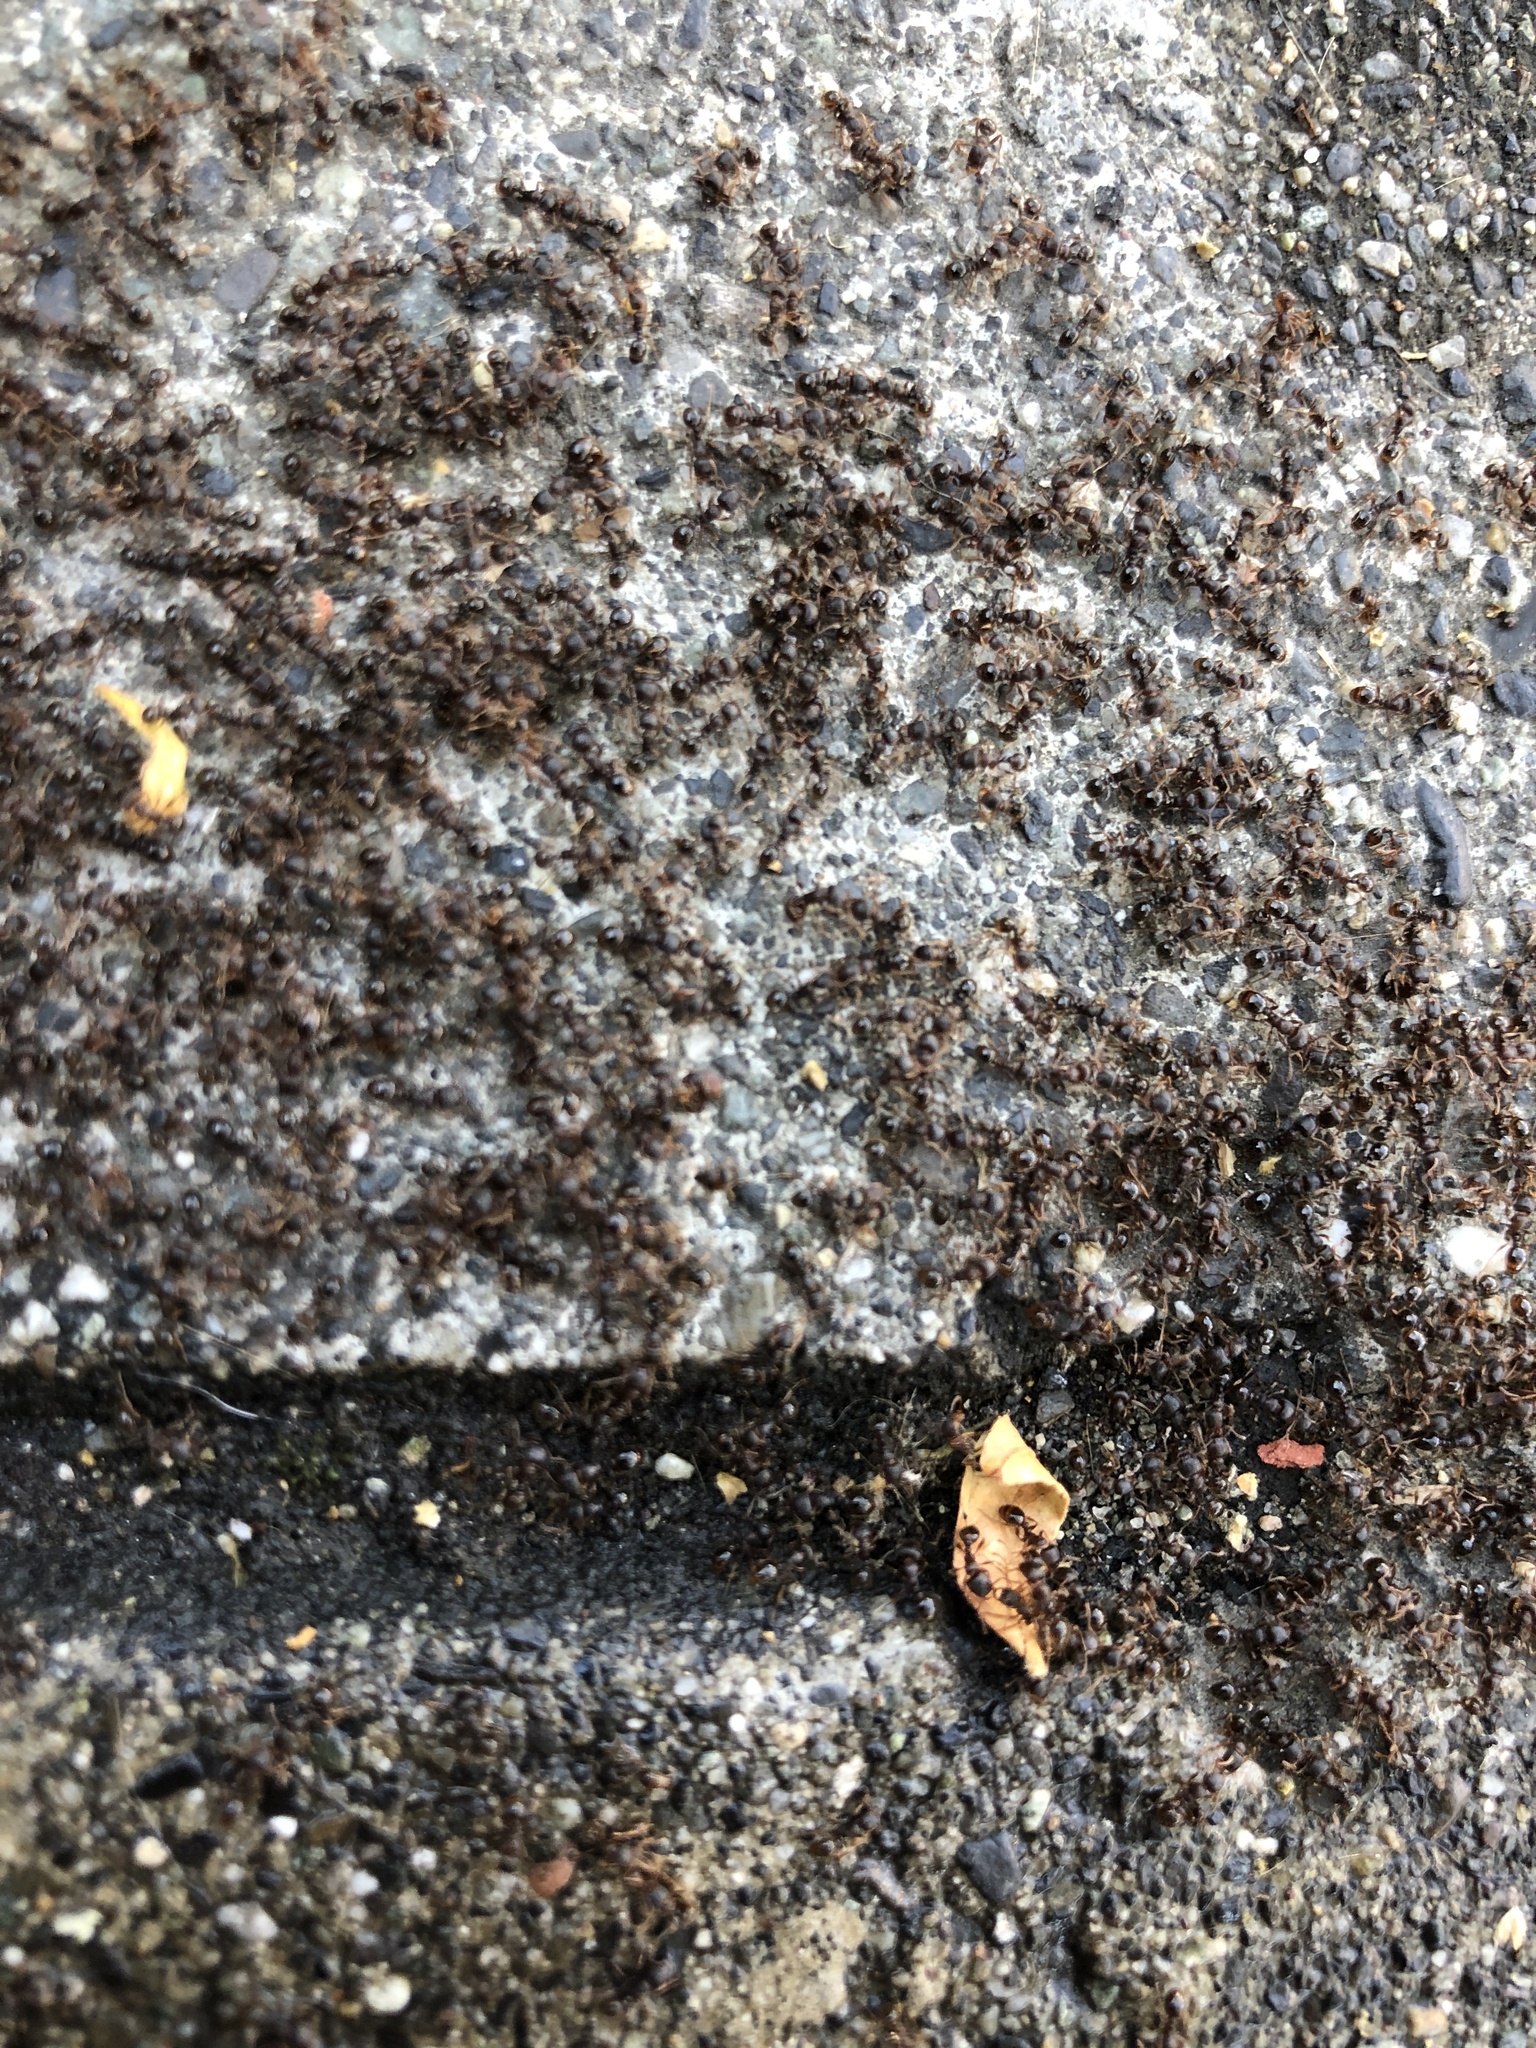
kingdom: Animalia
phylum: Arthropoda
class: Insecta
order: Hymenoptera
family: Formicidae
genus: Tetramorium
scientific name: Tetramorium immigrans
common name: Pavement ant
